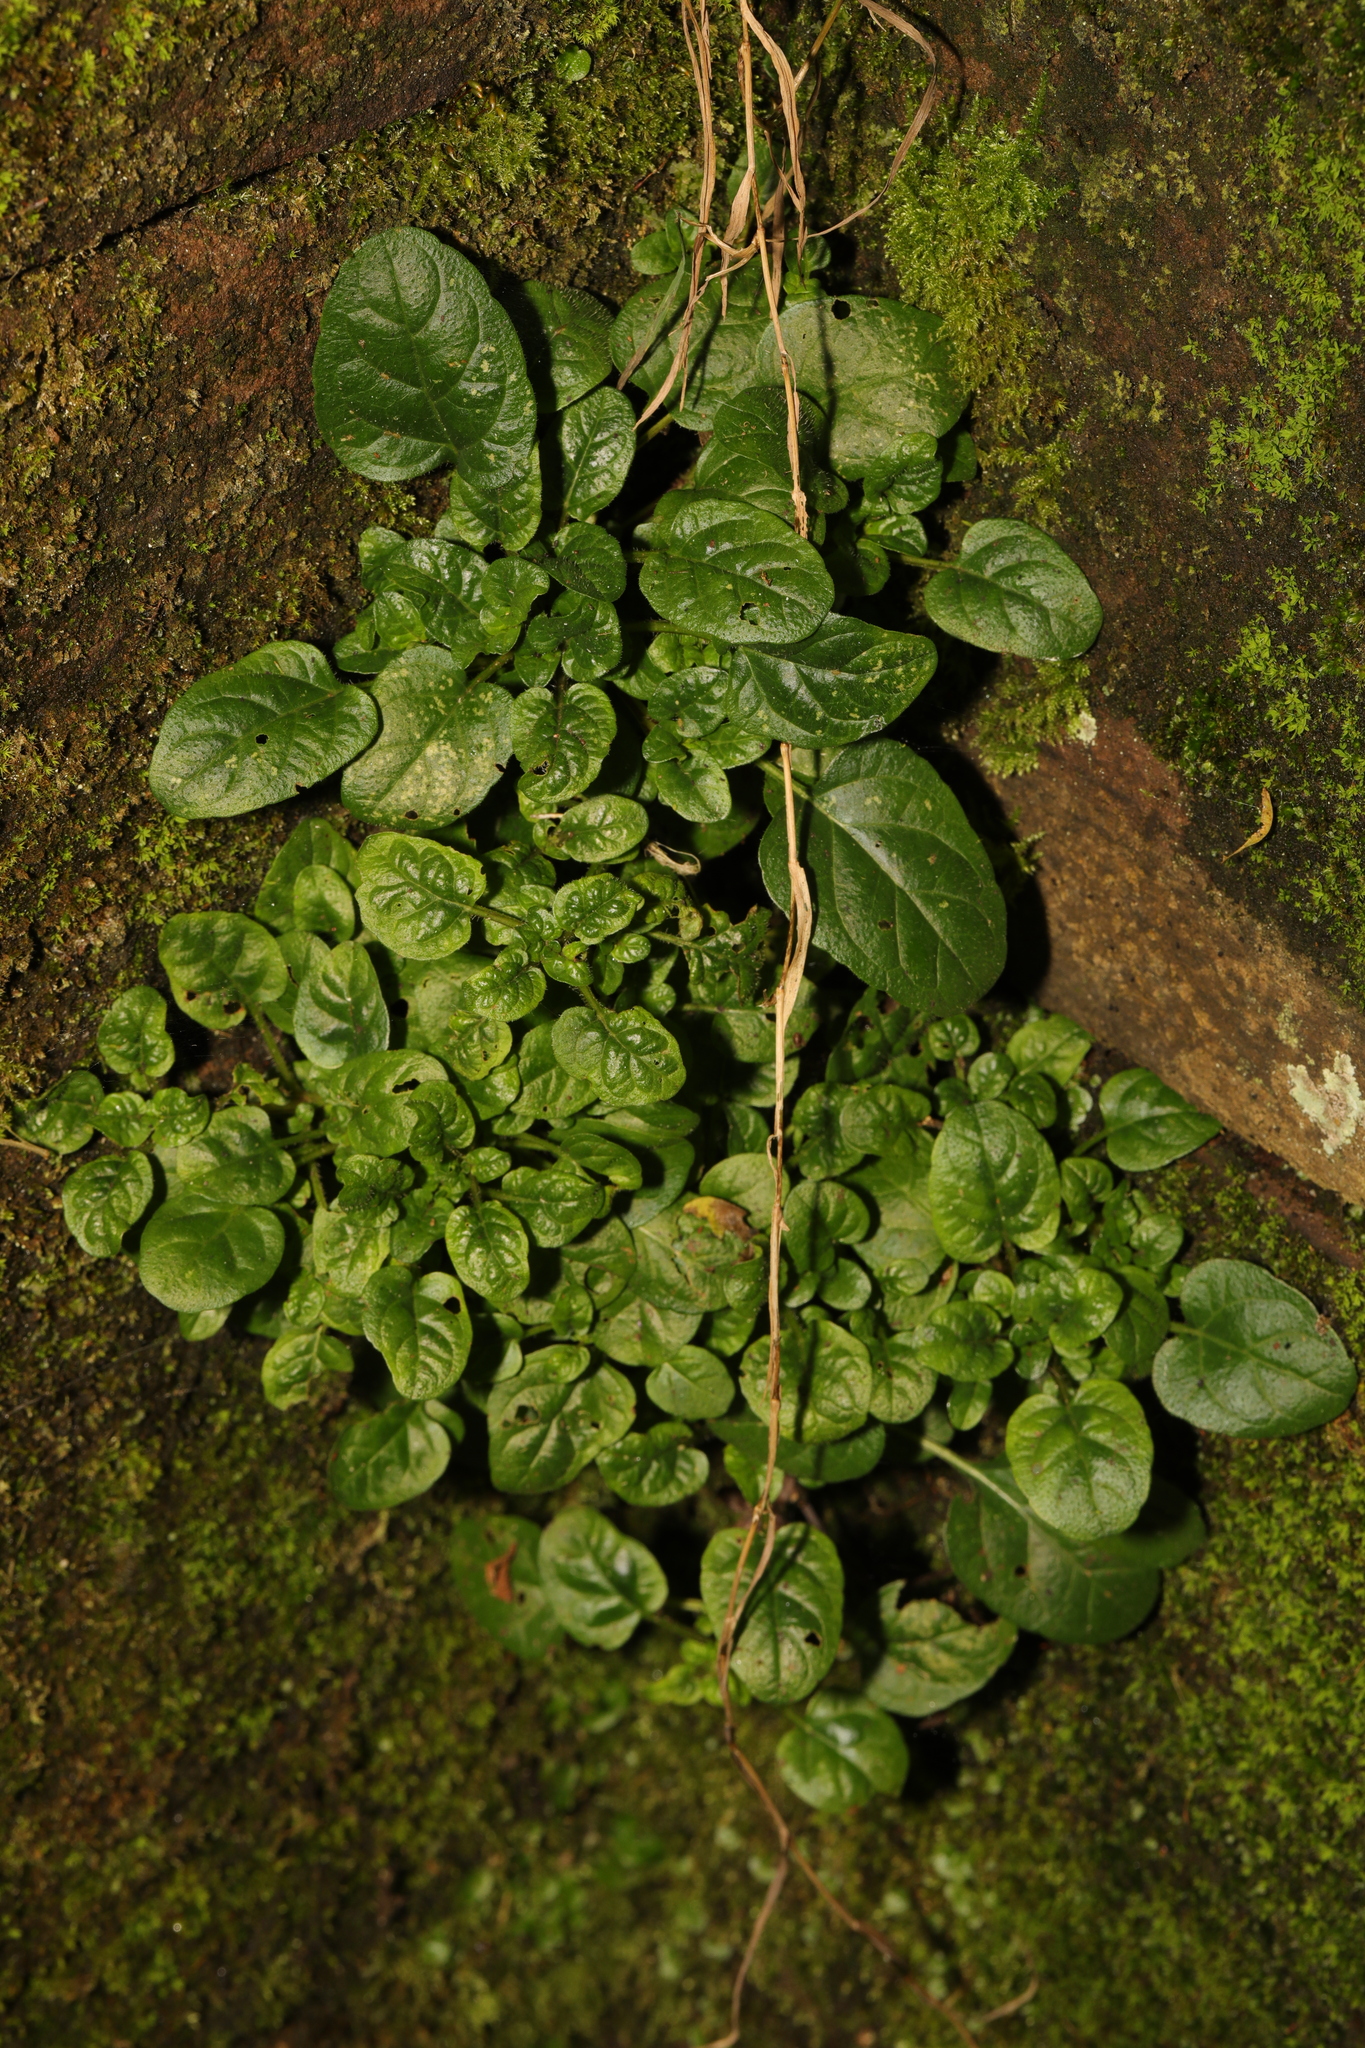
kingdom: Plantae
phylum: Tracheophyta
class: Magnoliopsida
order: Lamiales
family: Lamiaceae
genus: Prunella
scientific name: Prunella vulgaris
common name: Heal-all
